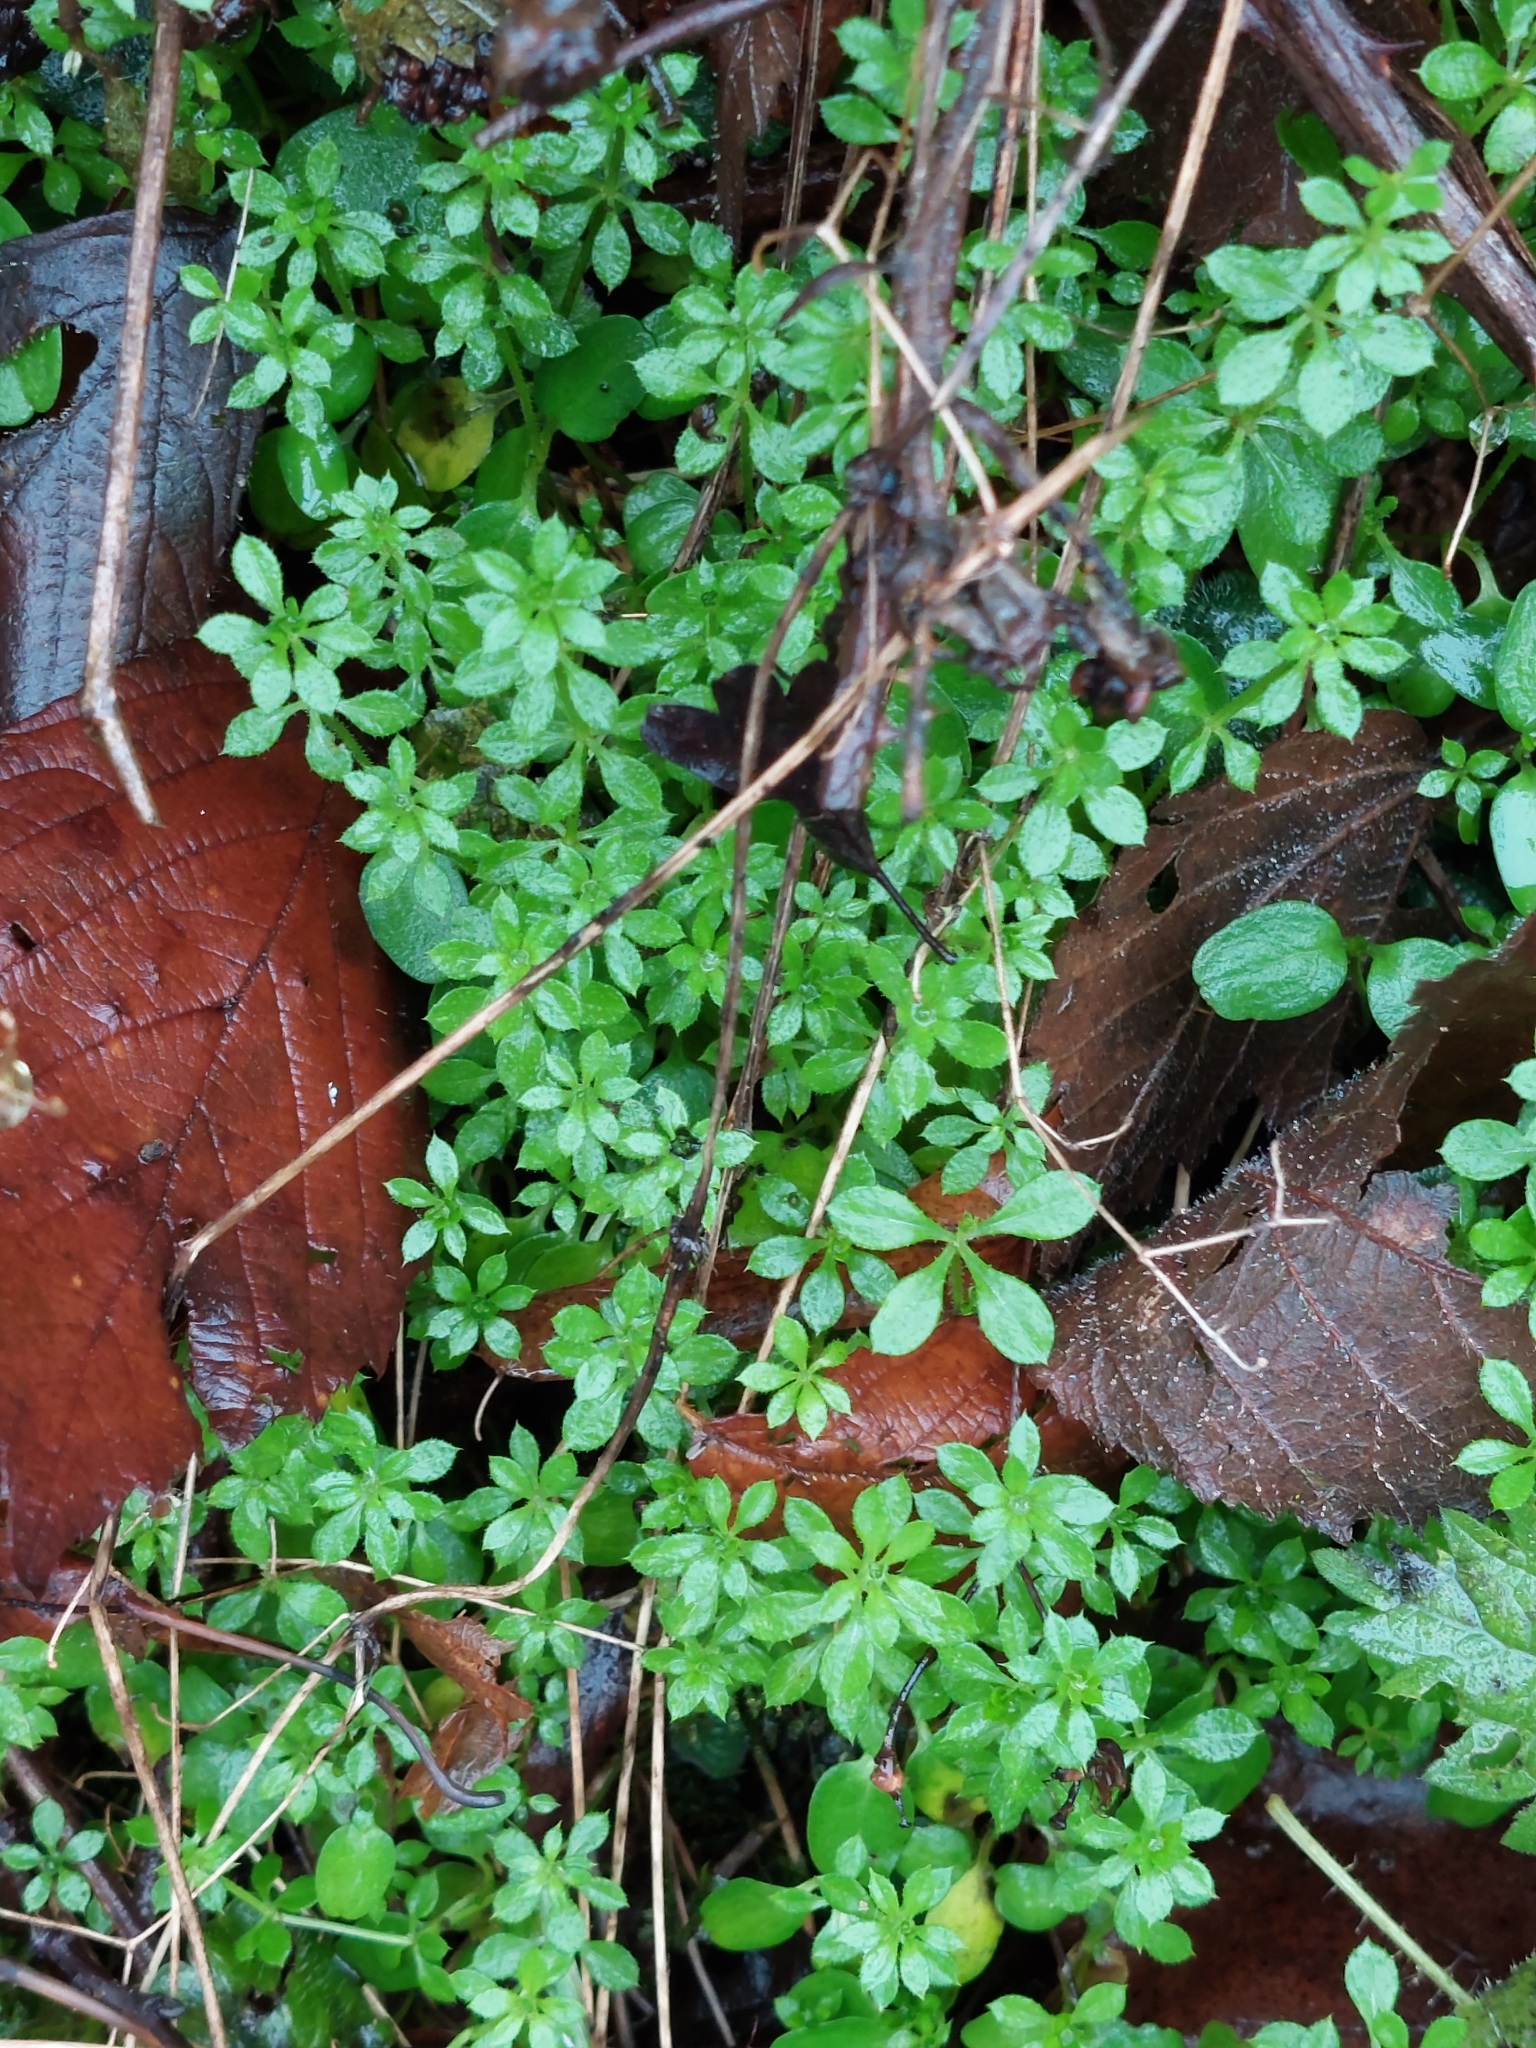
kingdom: Plantae
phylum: Tracheophyta
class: Magnoliopsida
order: Gentianales
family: Rubiaceae
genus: Galium
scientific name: Galium aparine
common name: Cleavers
